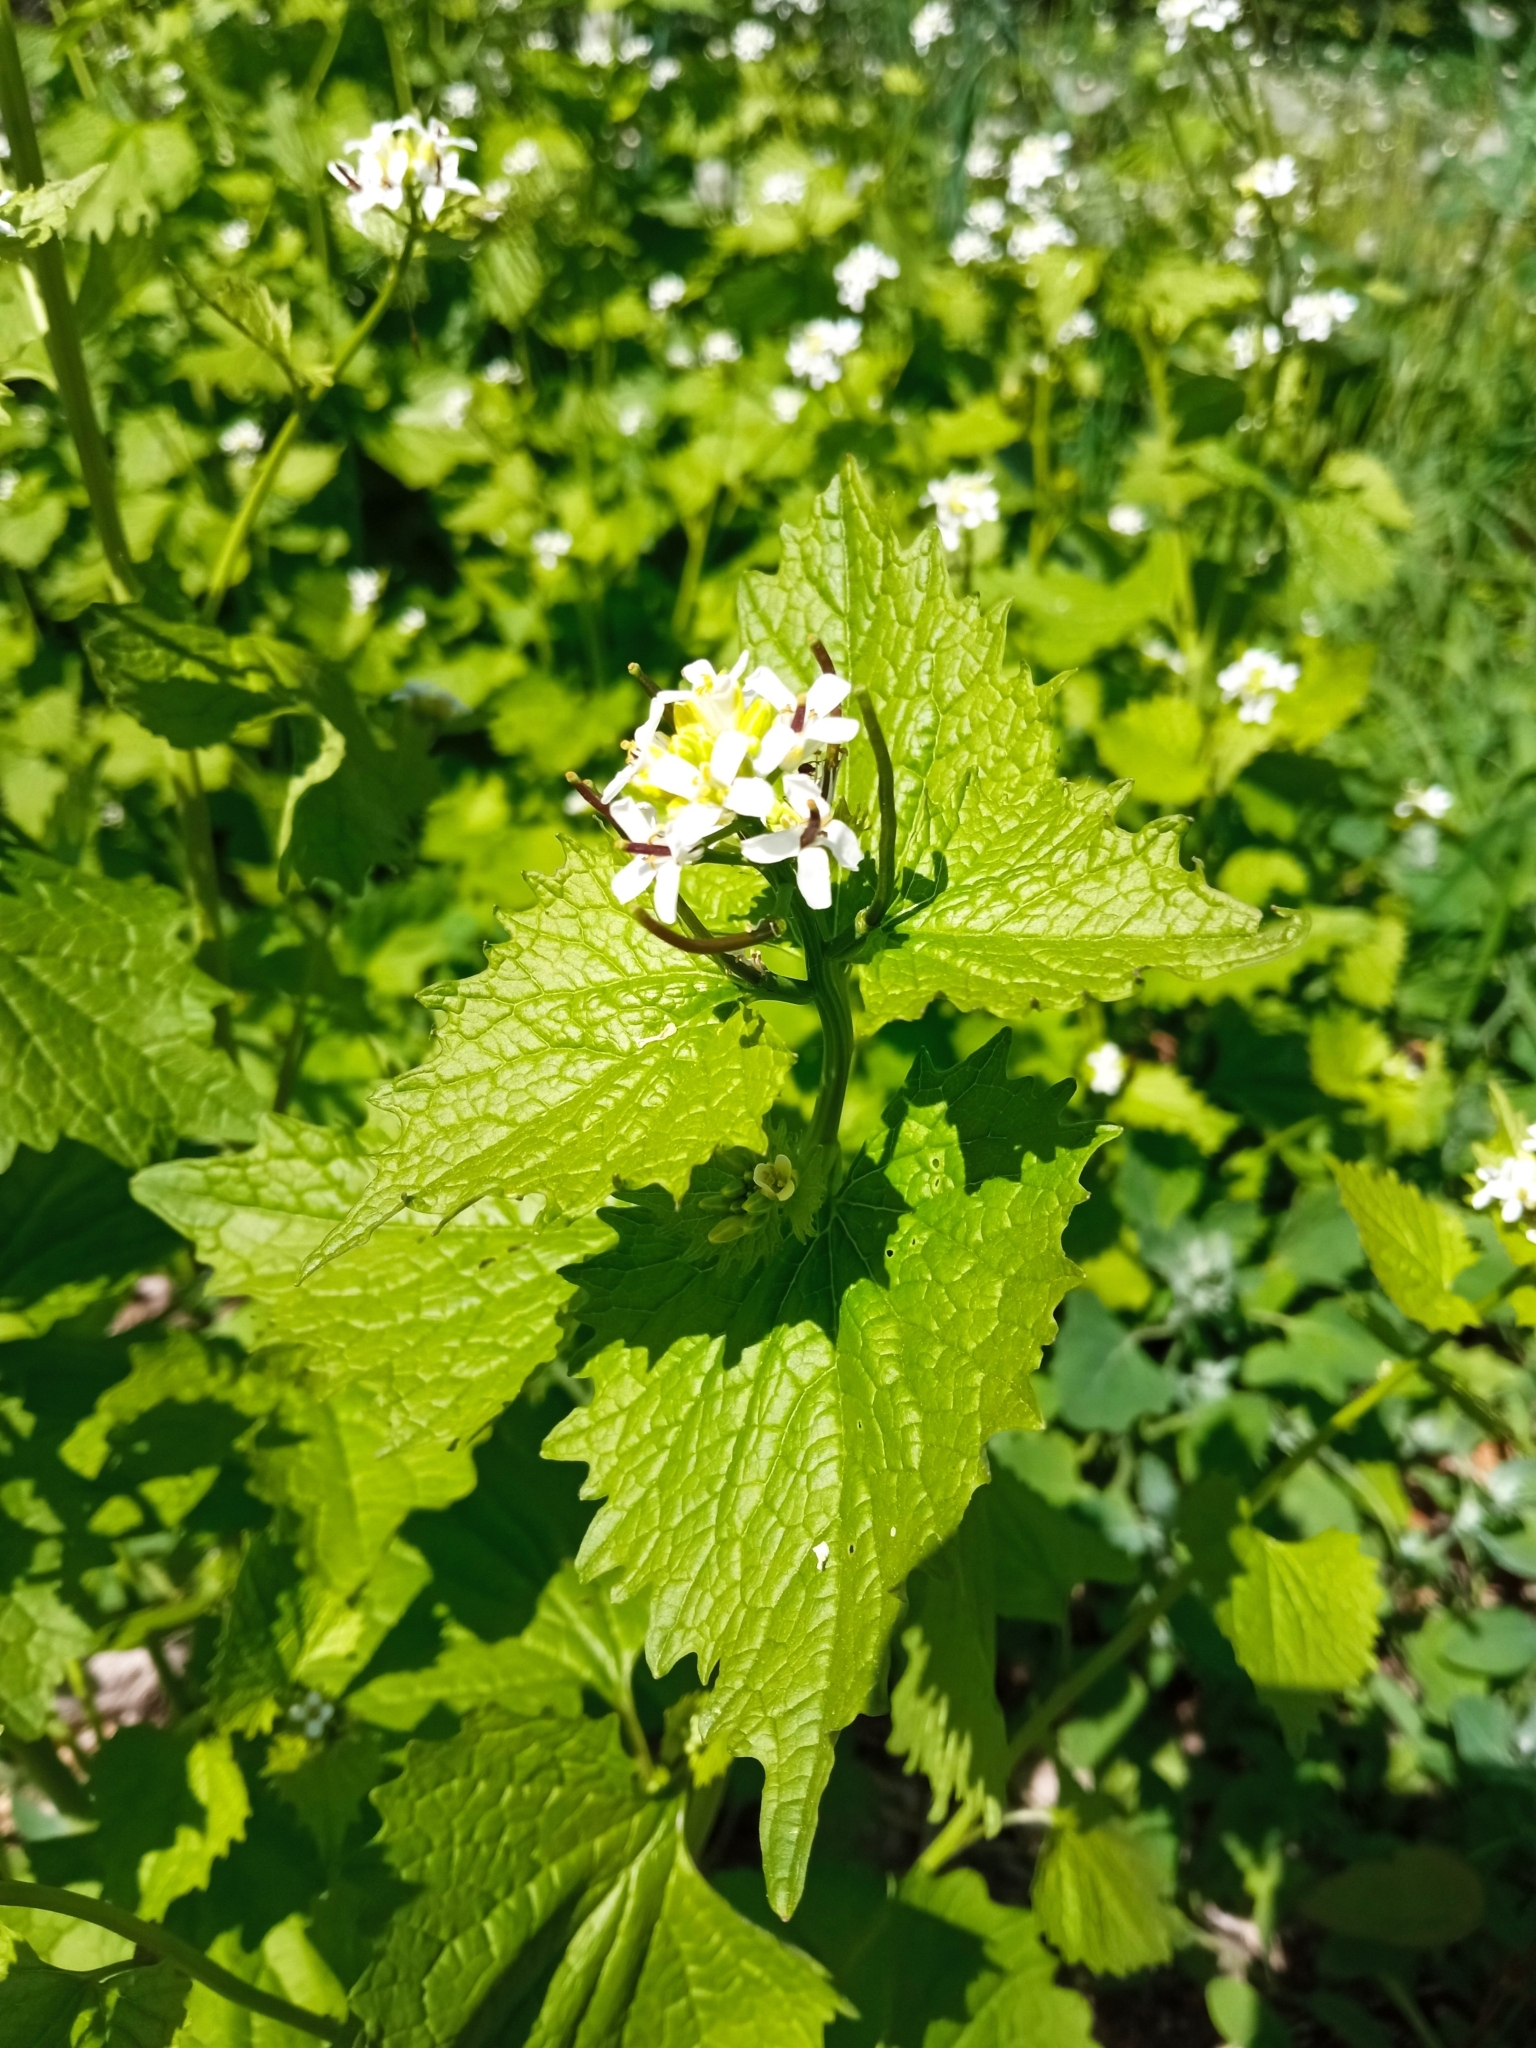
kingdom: Plantae
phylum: Tracheophyta
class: Magnoliopsida
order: Brassicales
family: Brassicaceae
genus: Alliaria
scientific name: Alliaria petiolata
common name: Garlic mustard
